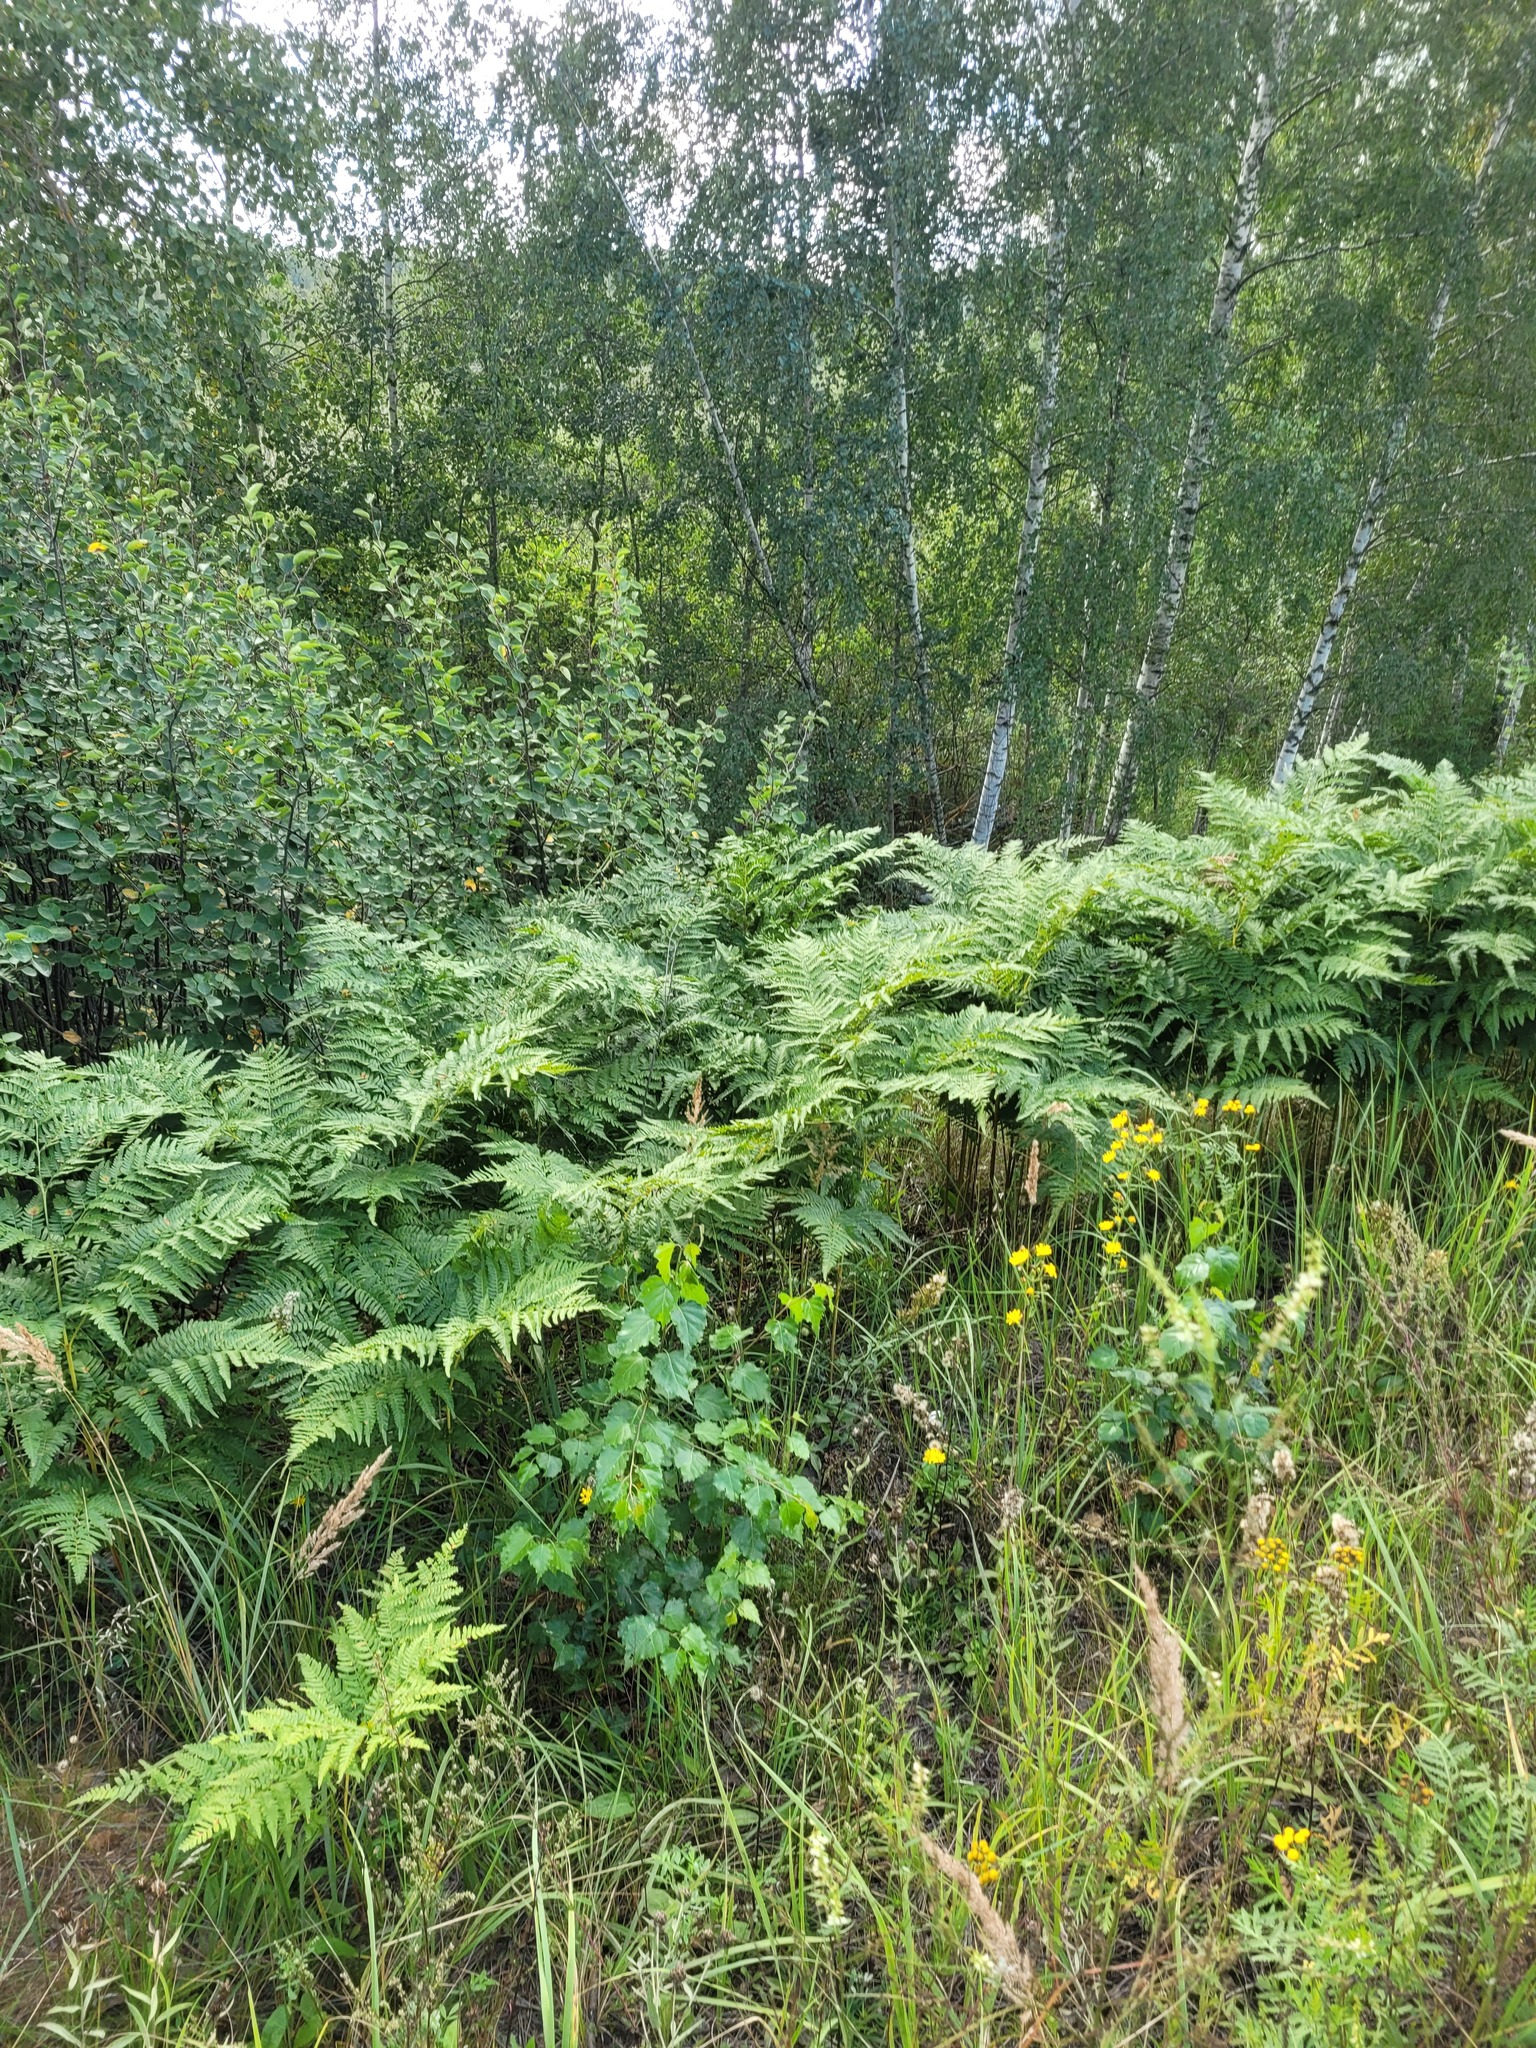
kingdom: Plantae
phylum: Tracheophyta
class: Polypodiopsida
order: Polypodiales
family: Dennstaedtiaceae
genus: Pteridium
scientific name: Pteridium aquilinum
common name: Bracken
